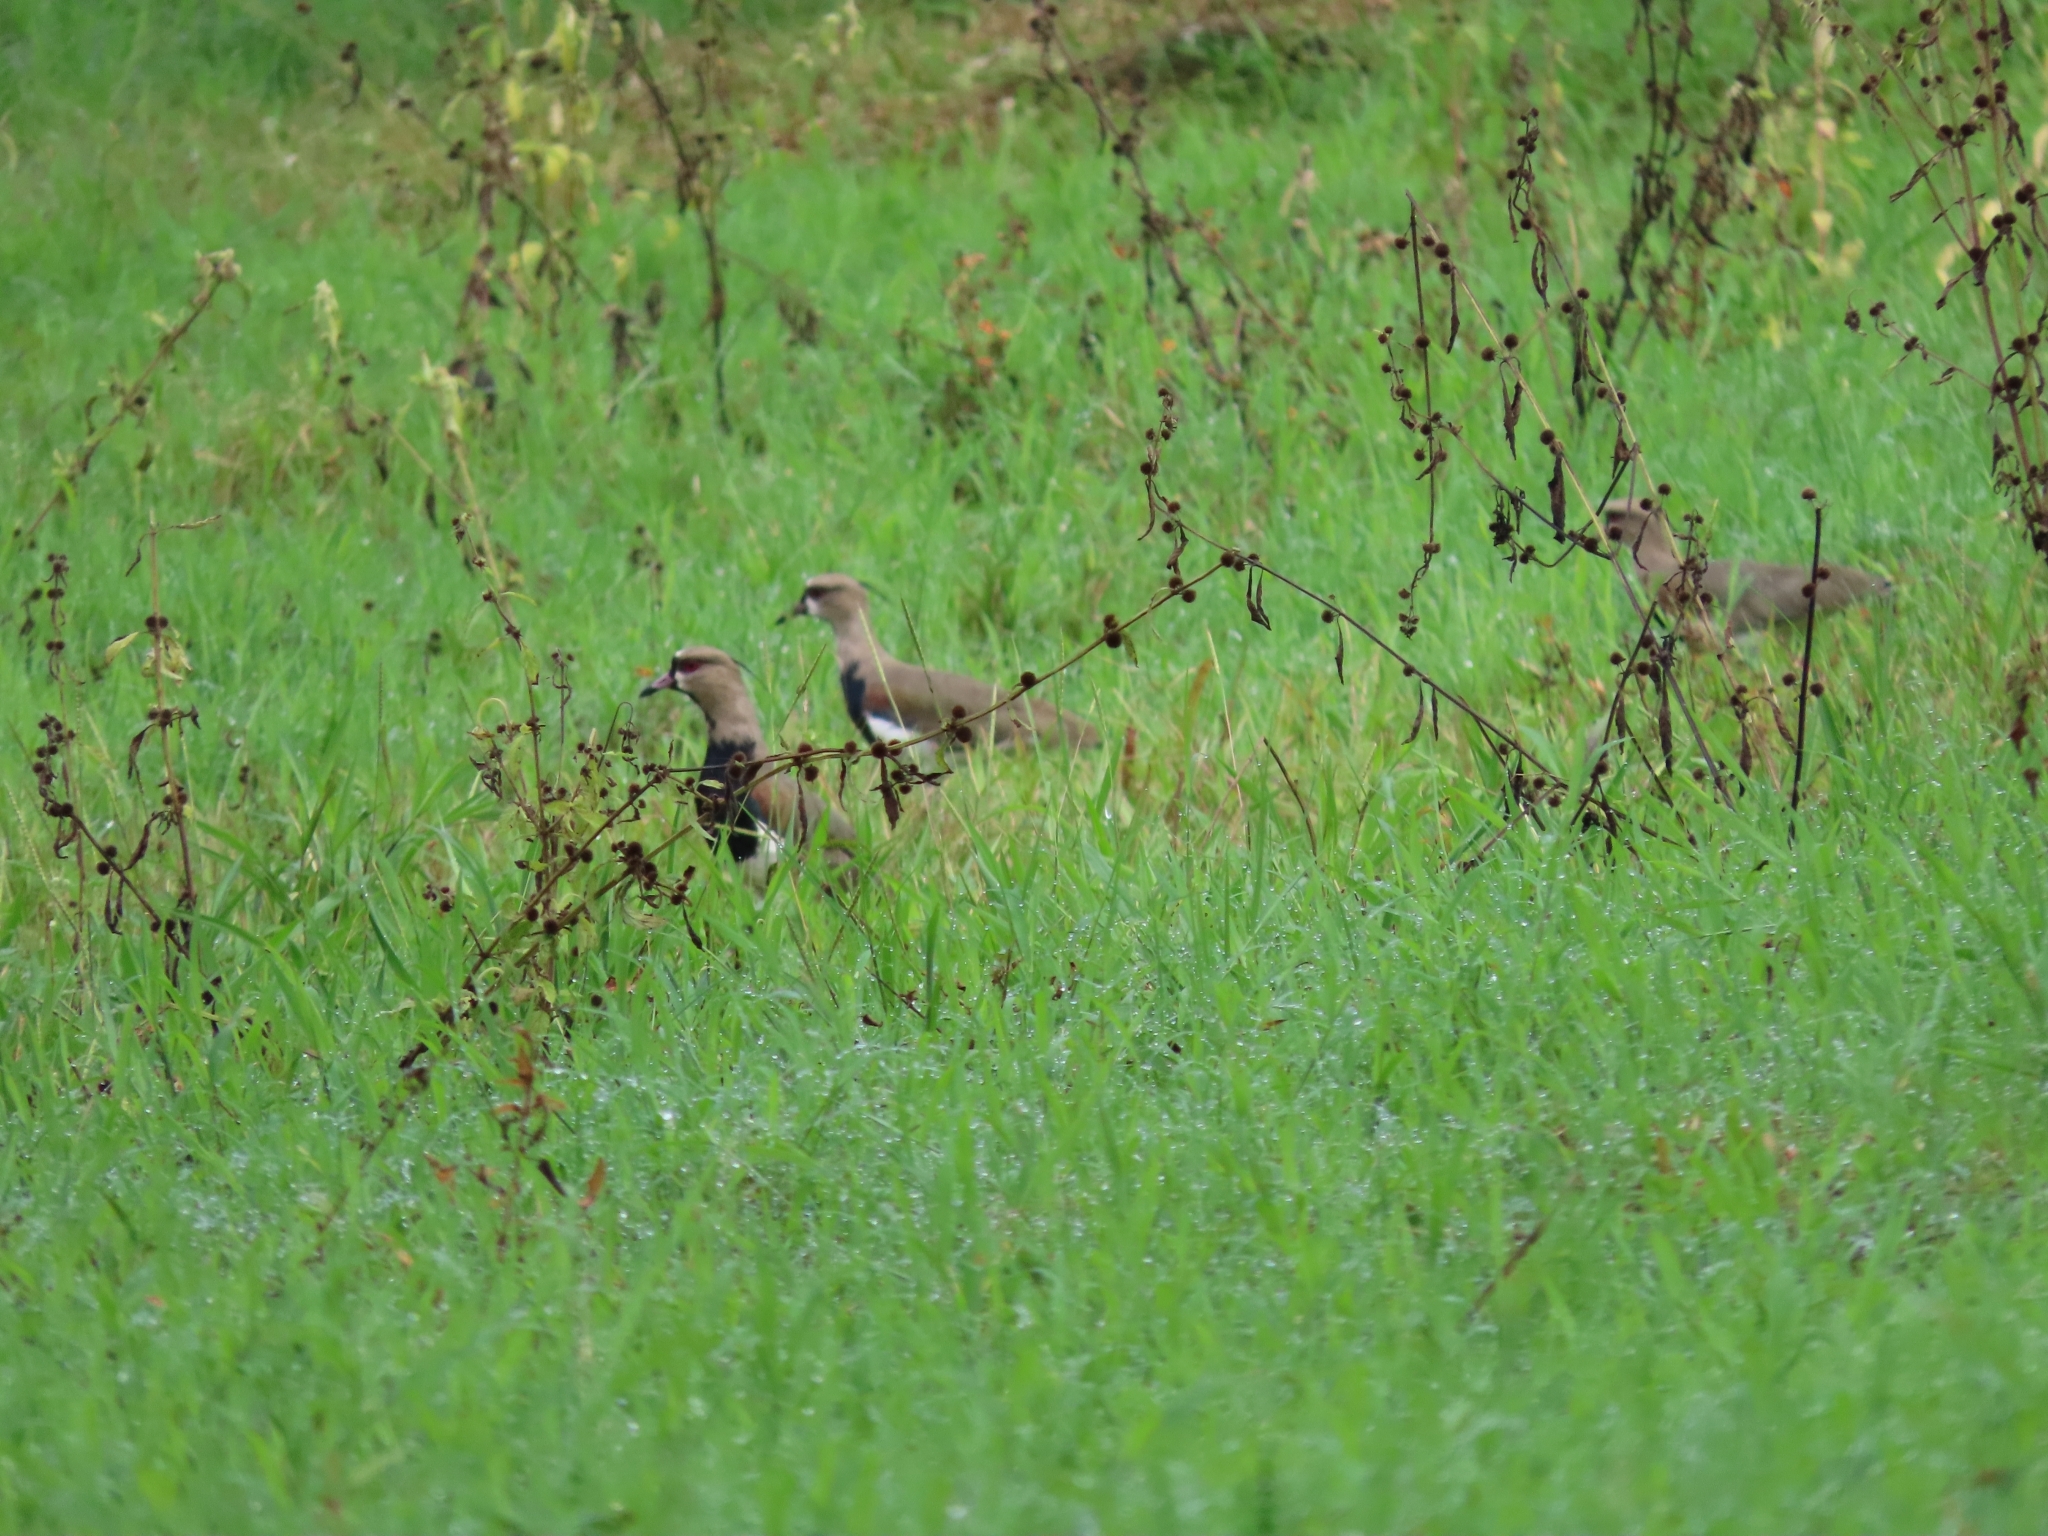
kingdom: Animalia
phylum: Chordata
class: Aves
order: Charadriiformes
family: Charadriidae
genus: Vanellus
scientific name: Vanellus chilensis
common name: Southern lapwing
